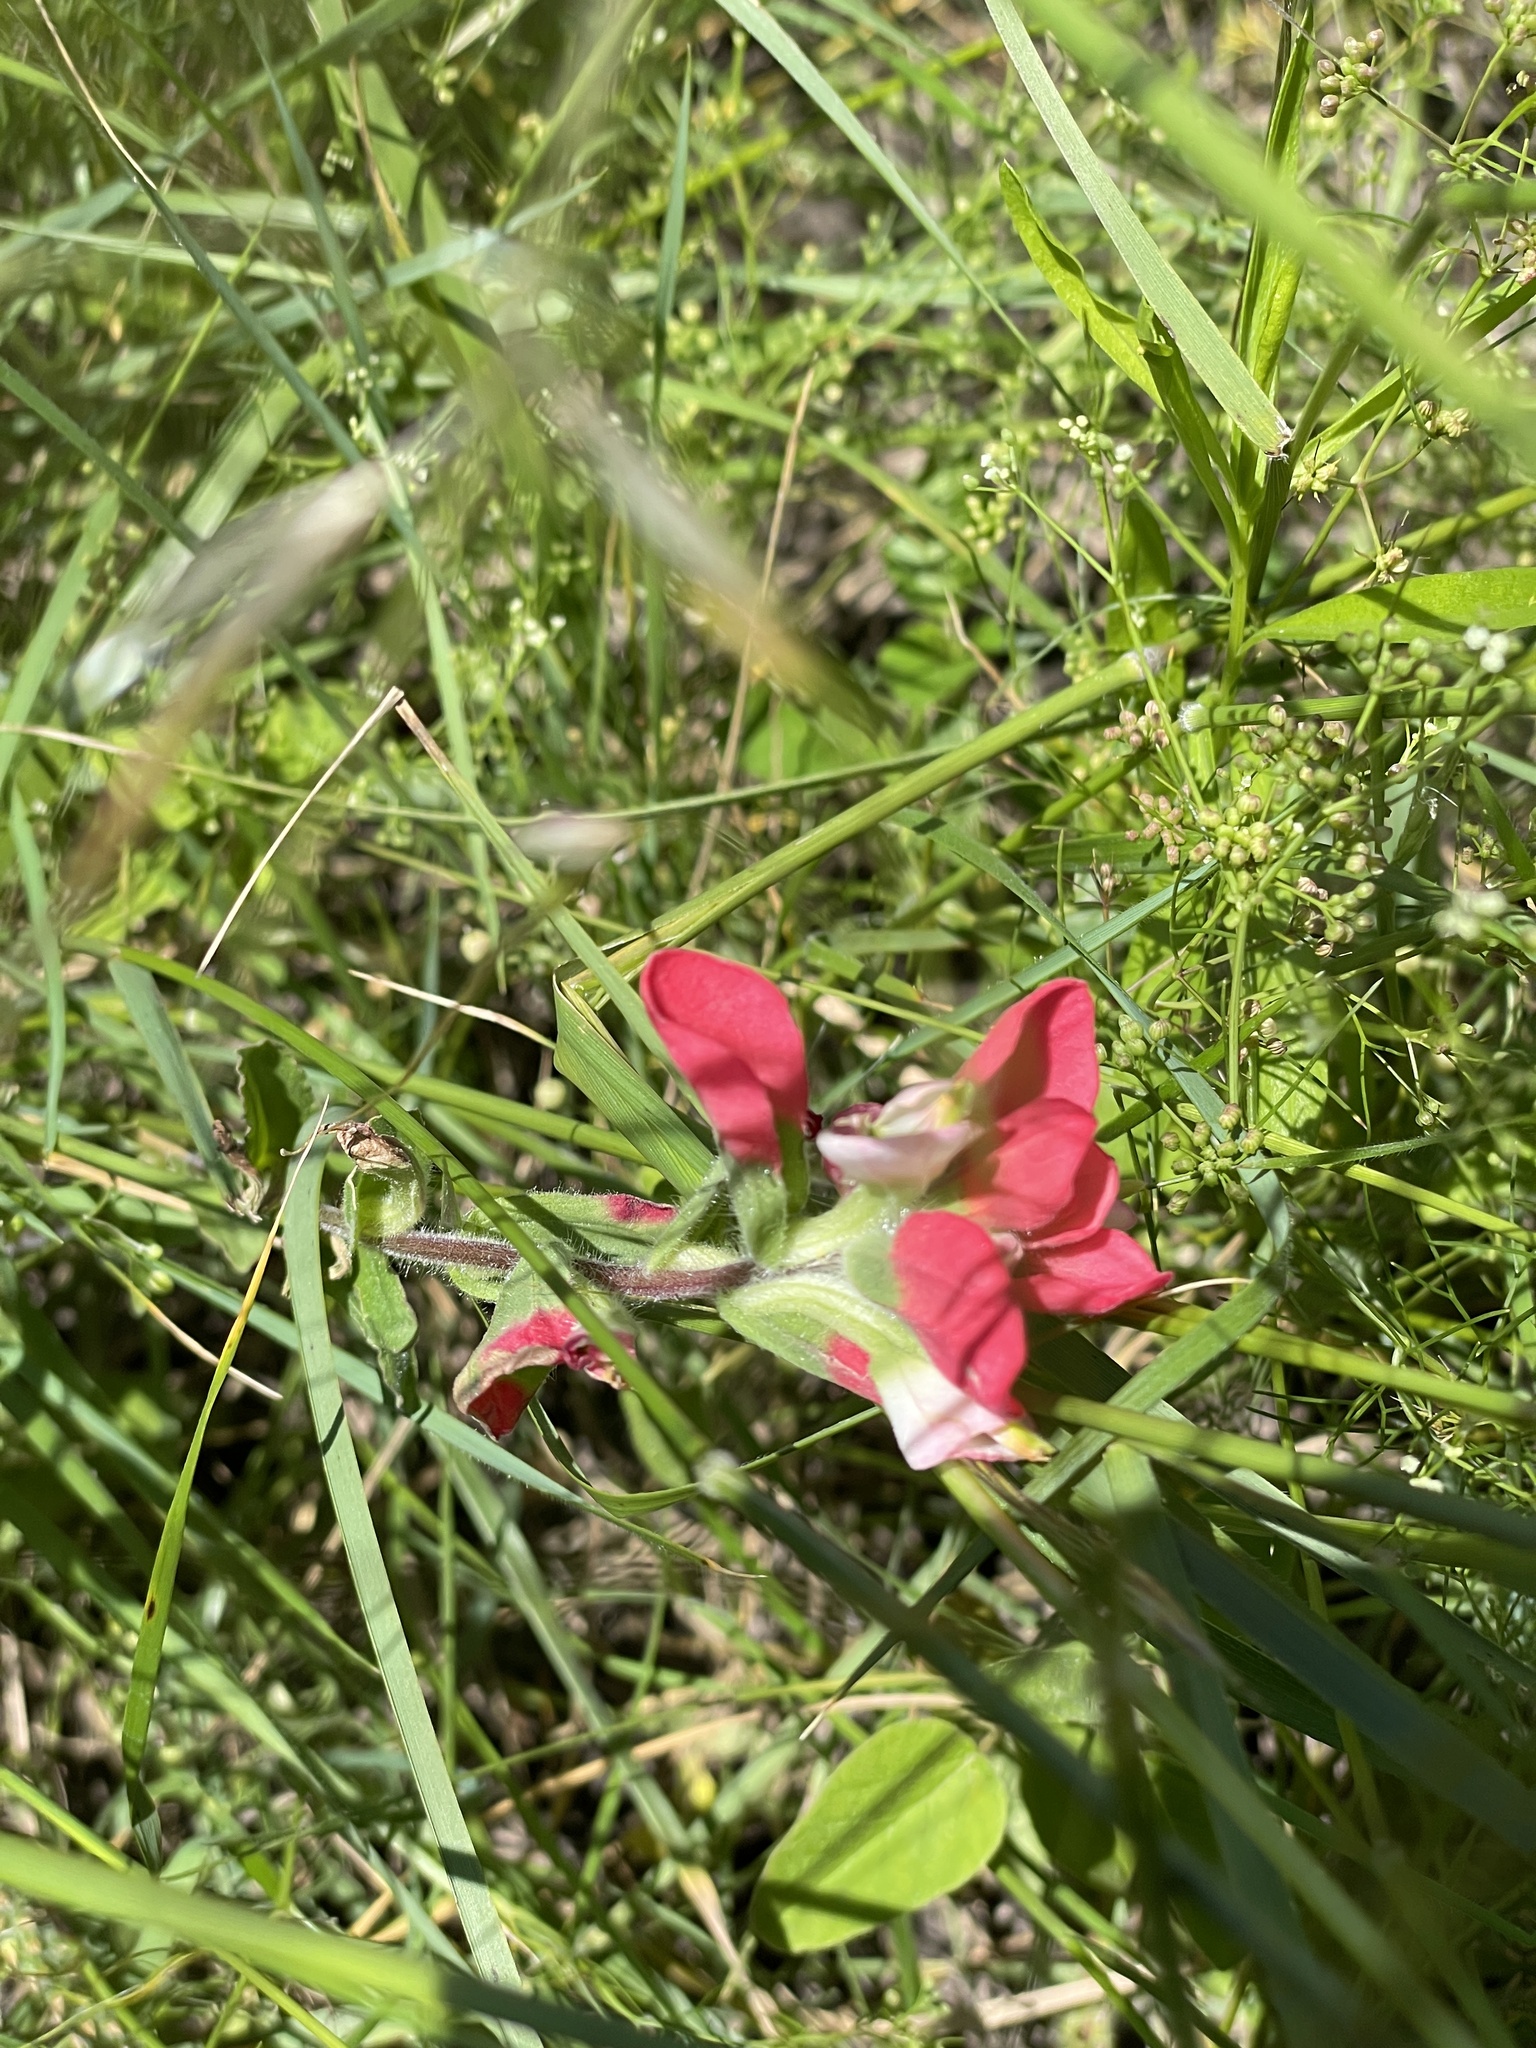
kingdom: Plantae
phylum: Tracheophyta
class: Magnoliopsida
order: Lamiales
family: Orobanchaceae
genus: Castilleja
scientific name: Castilleja indivisa
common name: Texas paintbrush
